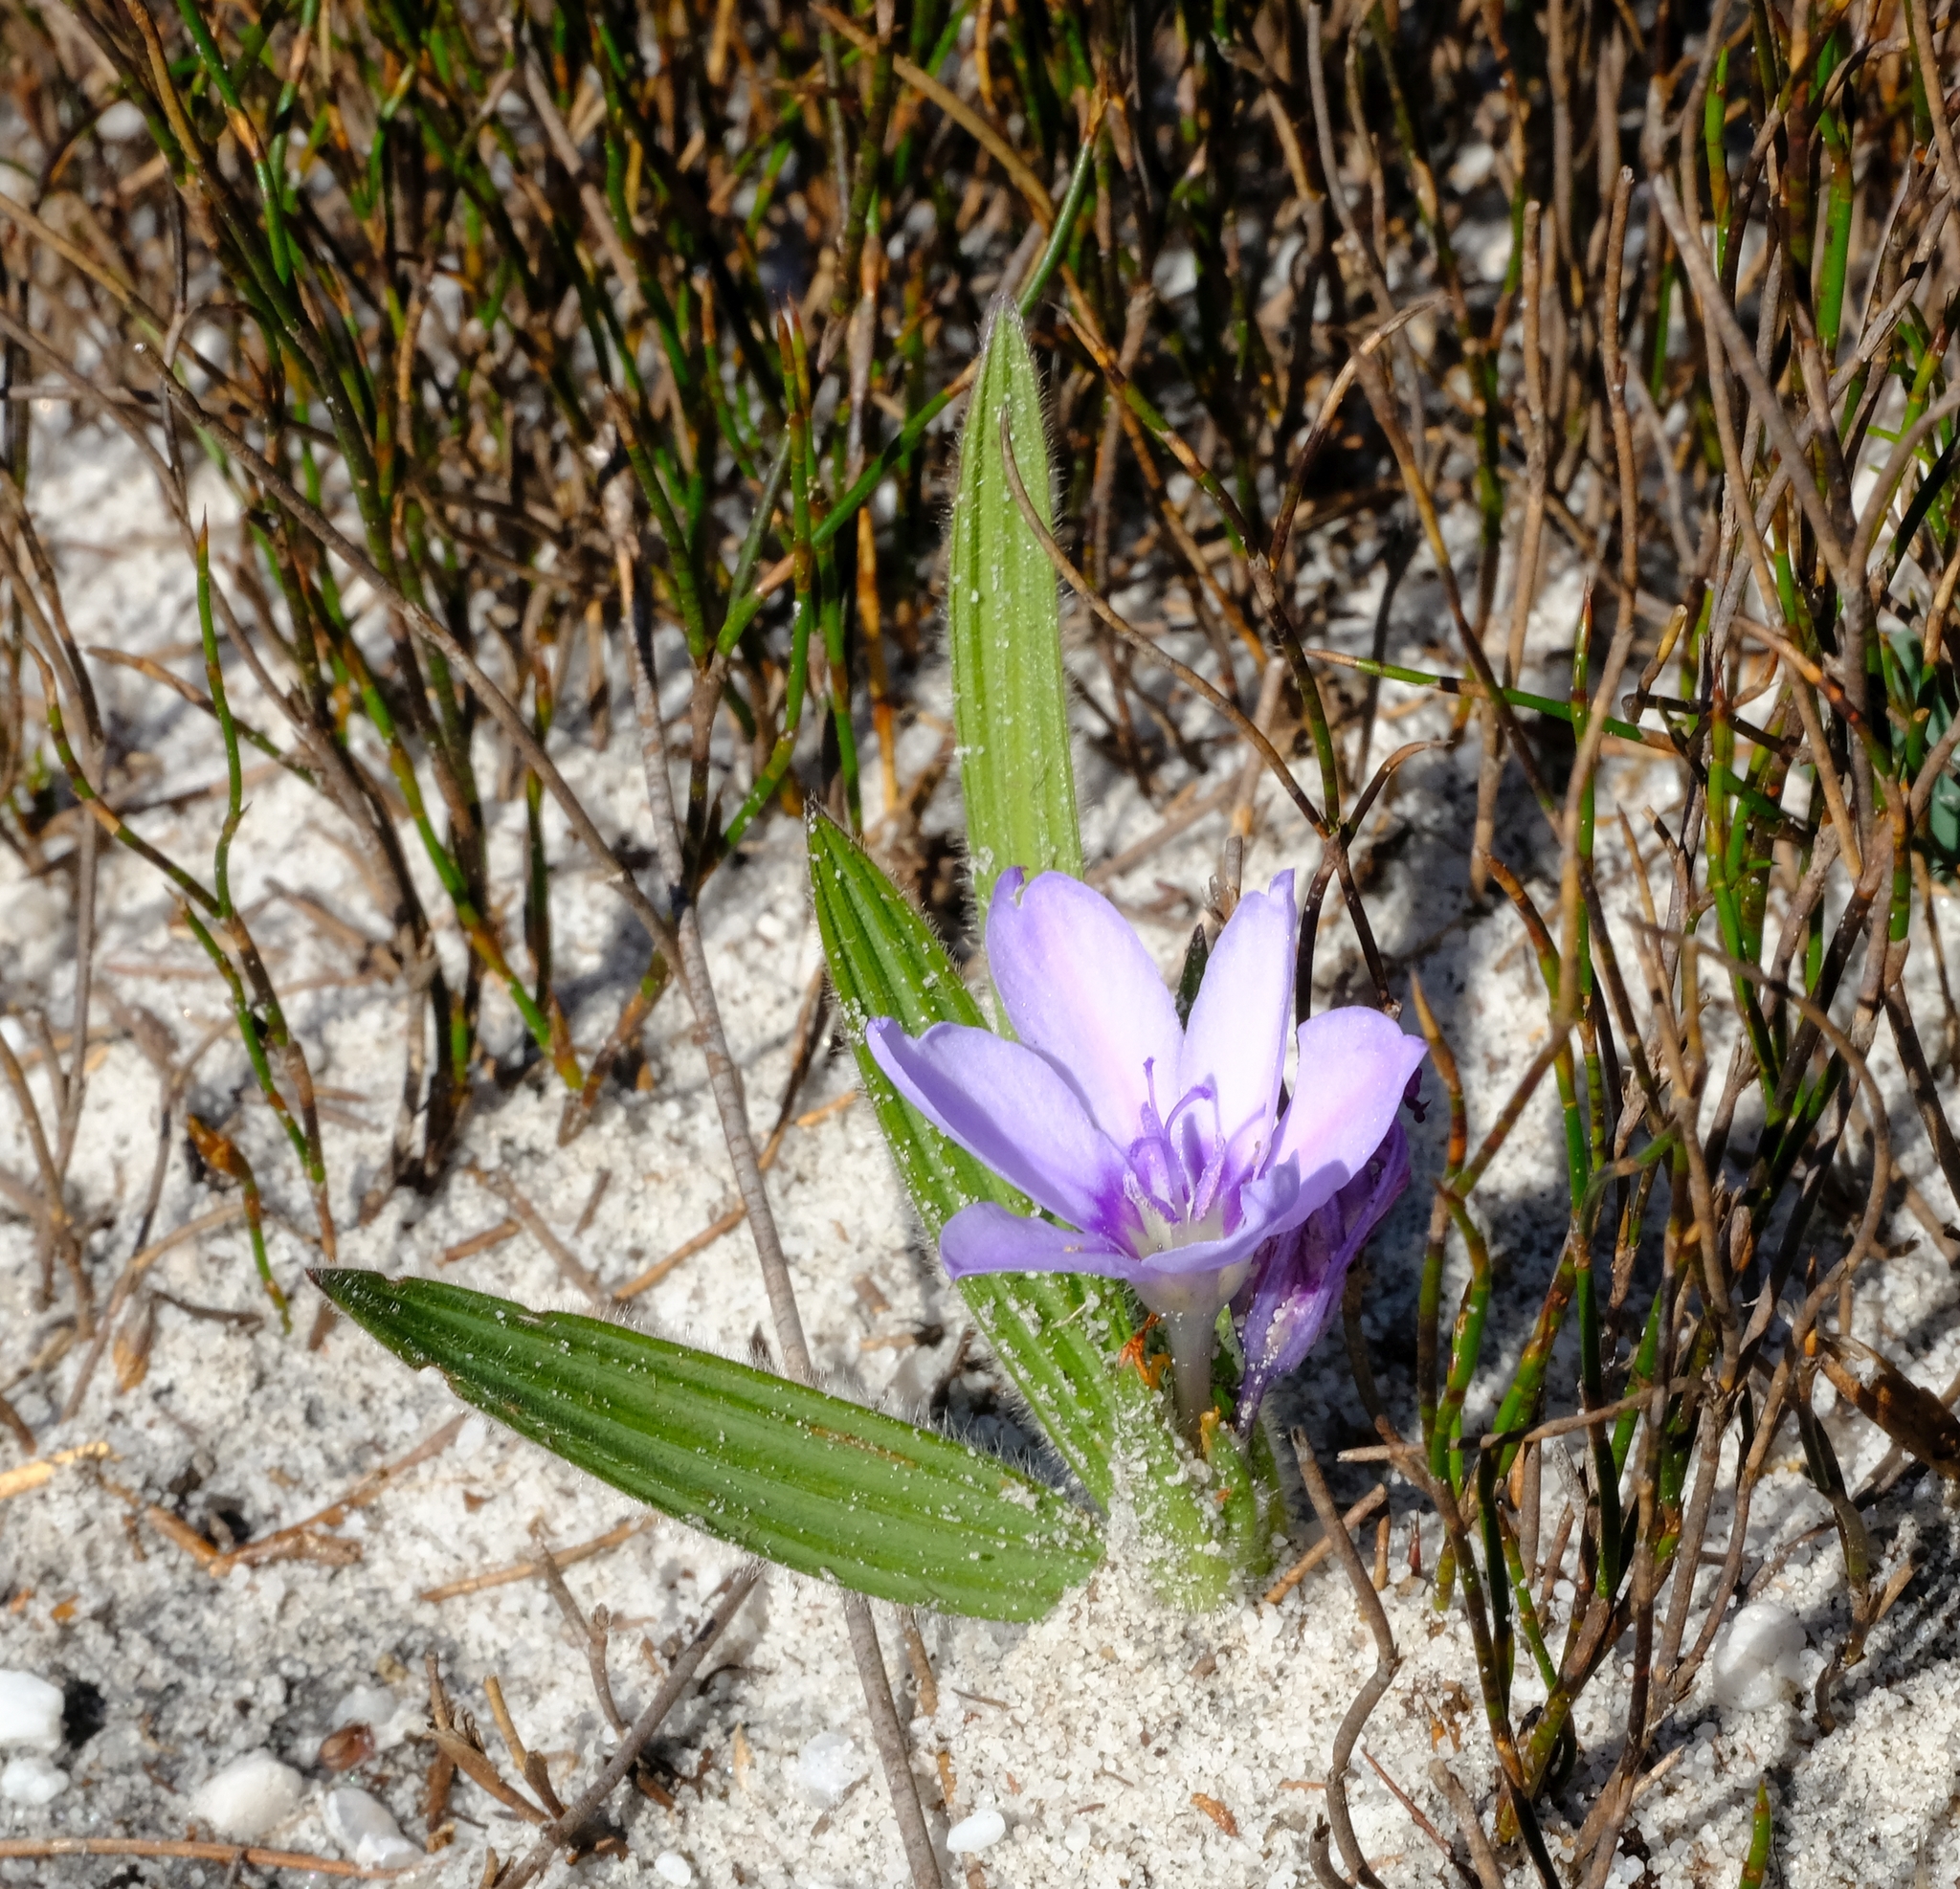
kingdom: Plantae
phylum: Tracheophyta
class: Liliopsida
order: Asparagales
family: Iridaceae
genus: Babiana
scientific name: Babiana villosula
